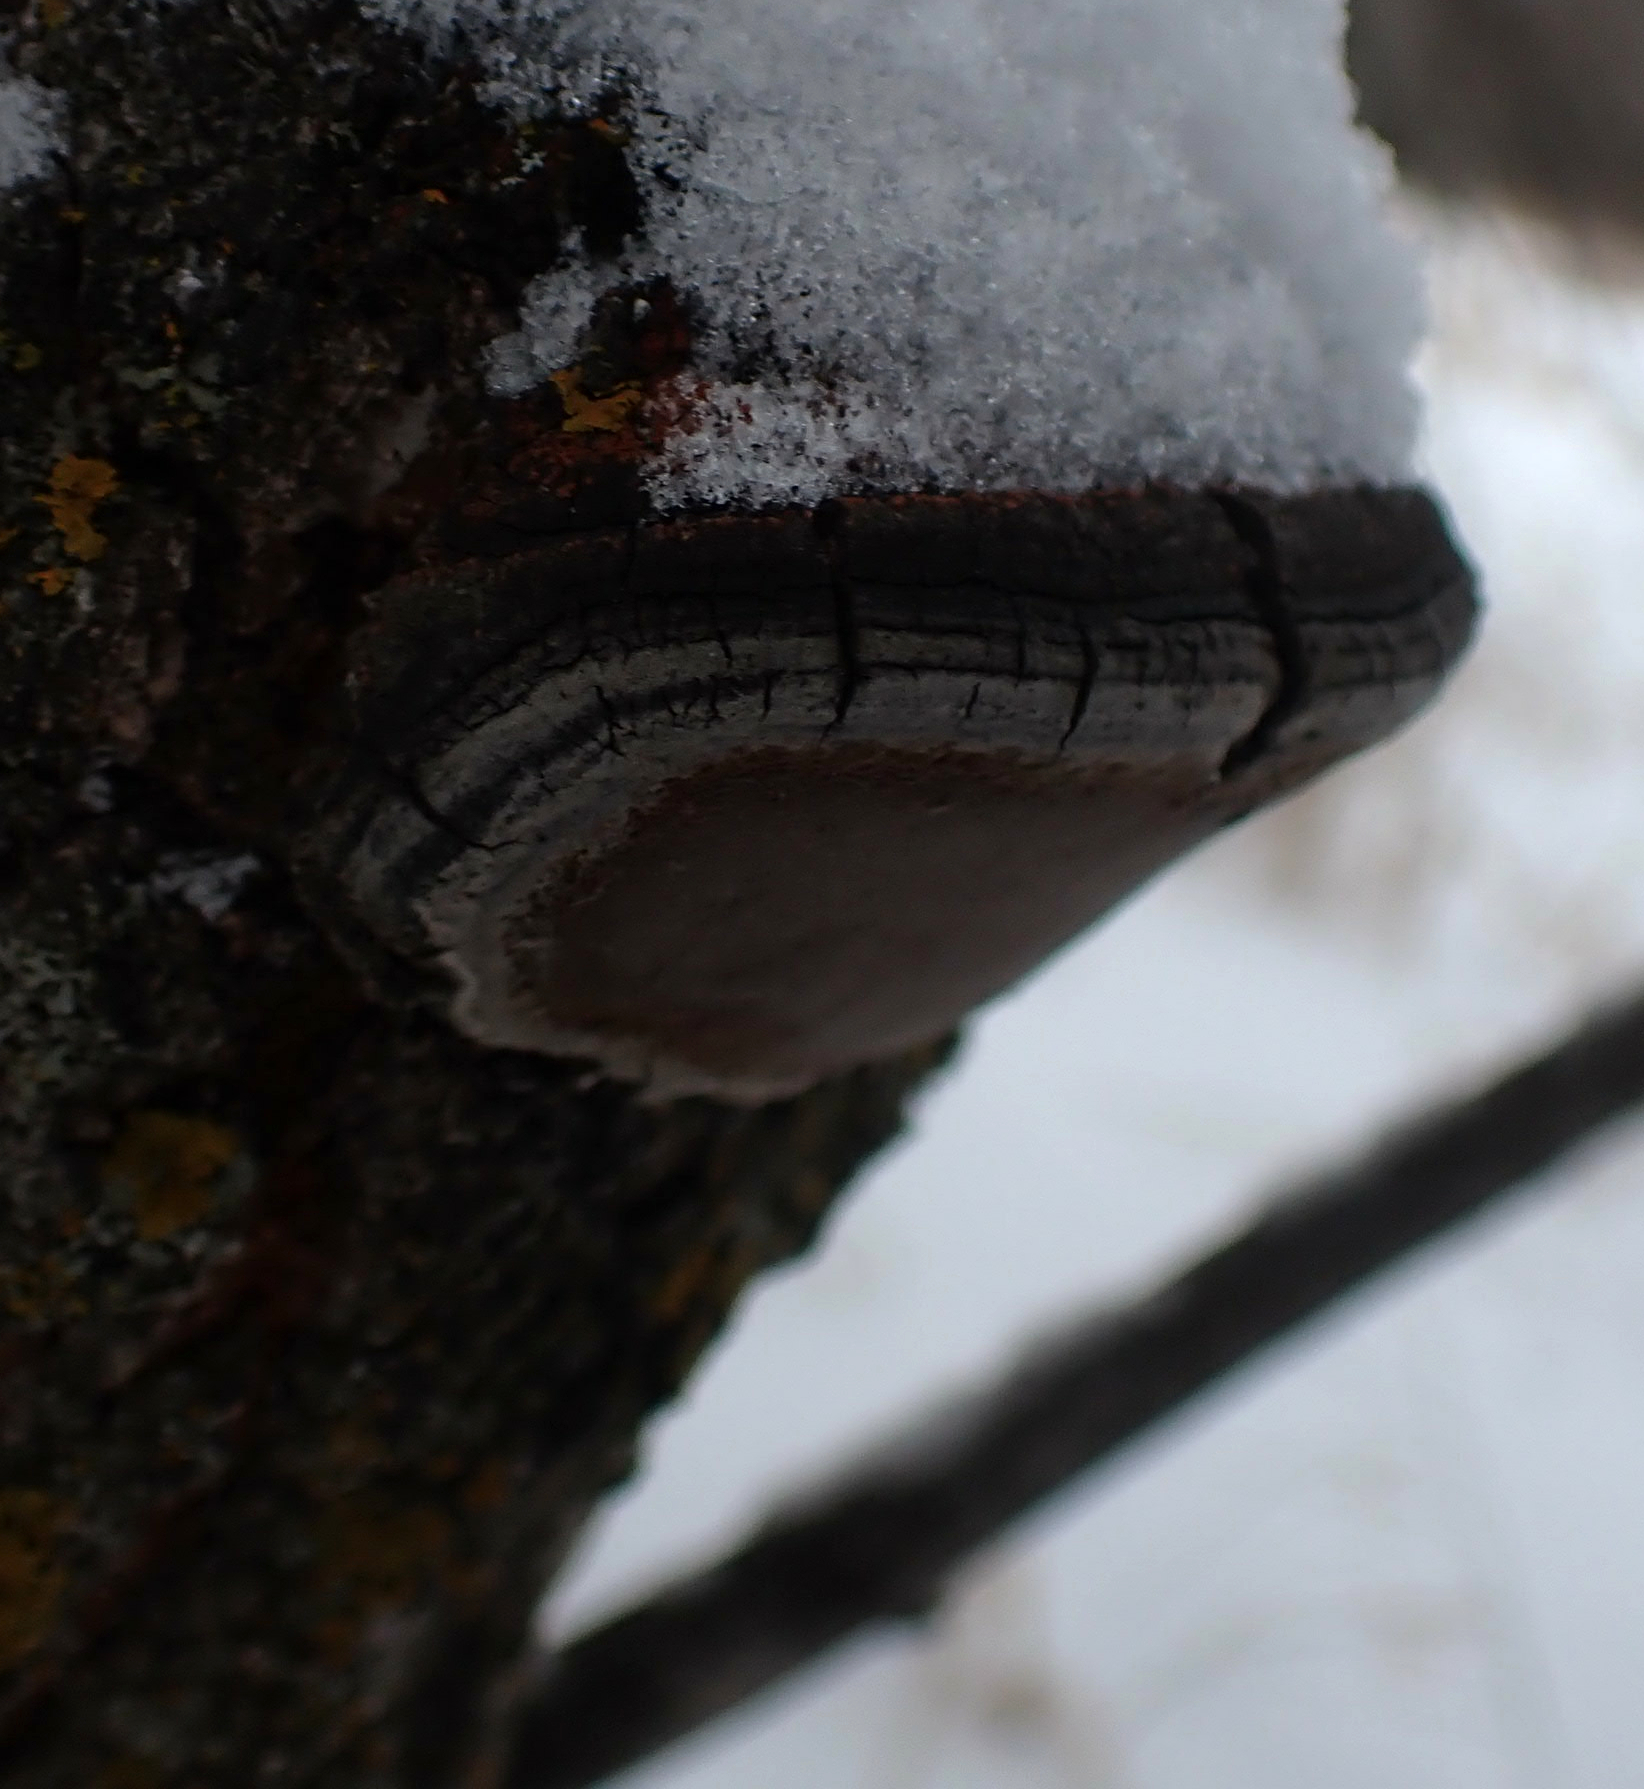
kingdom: Fungi
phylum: Basidiomycota
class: Agaricomycetes
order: Hymenochaetales
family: Hymenochaetaceae
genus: Phellinus
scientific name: Phellinus tremulae
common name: Aspen bracket
